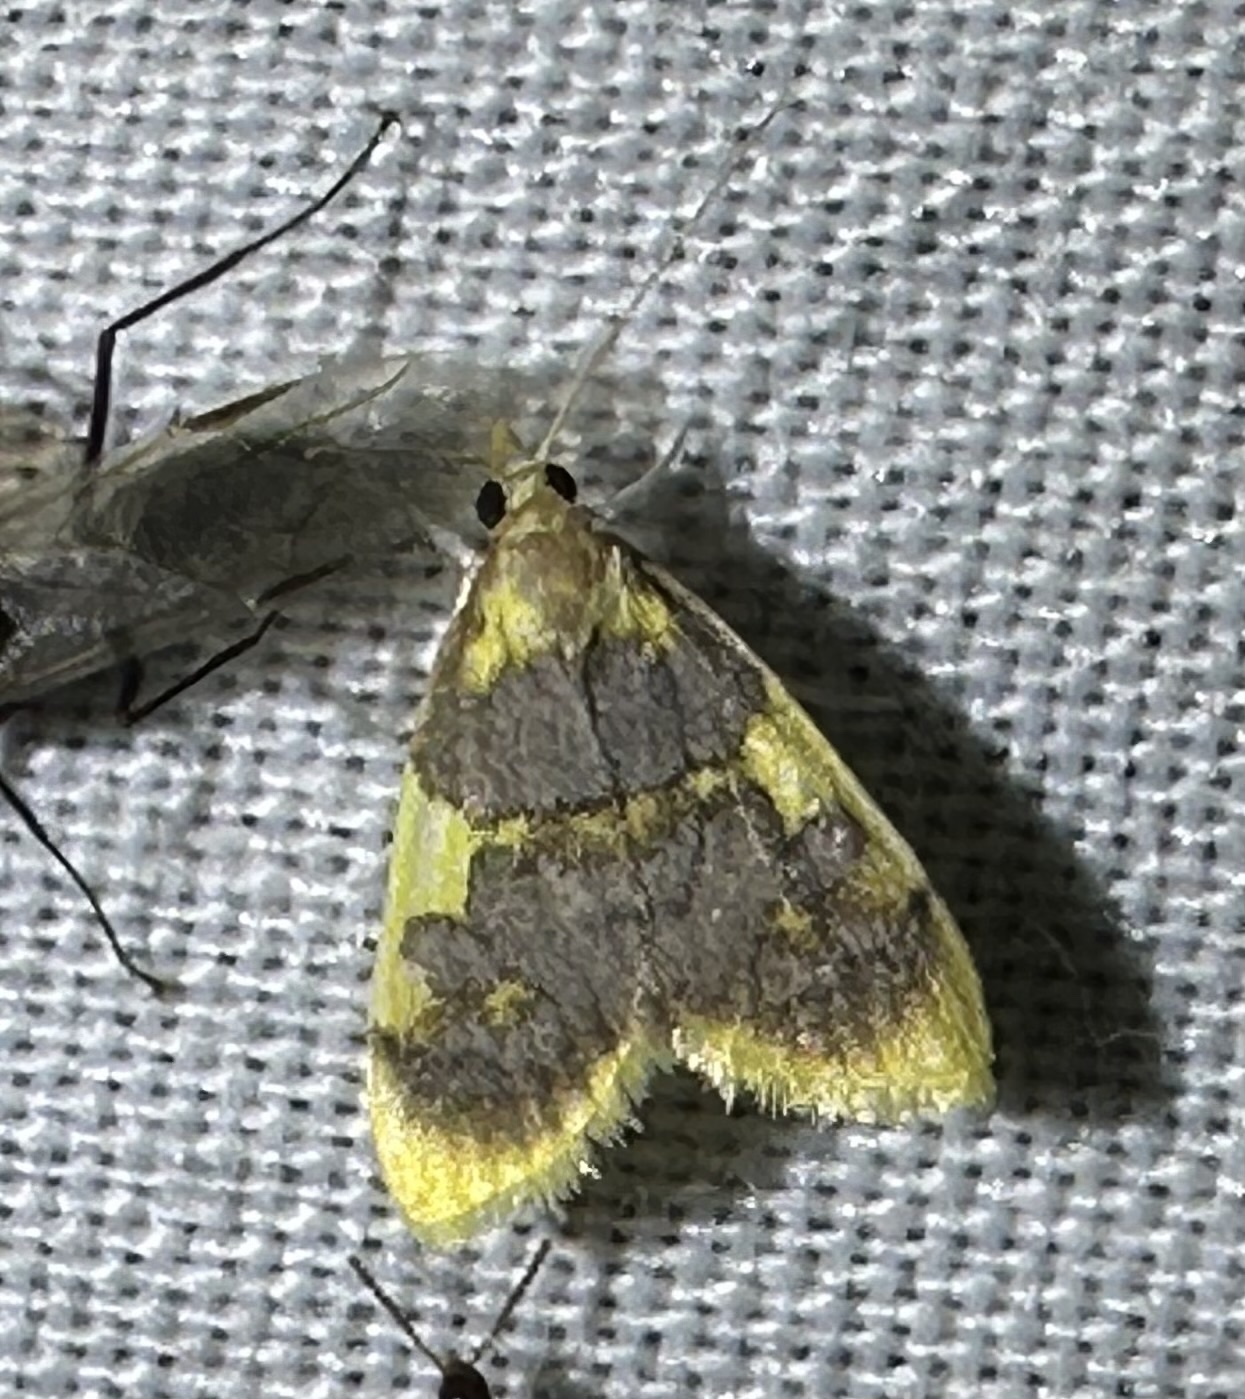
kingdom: Animalia
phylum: Arthropoda
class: Insecta
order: Lepidoptera
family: Crambidae
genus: Thliptoceras
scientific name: Thliptoceras xanthocraspia
